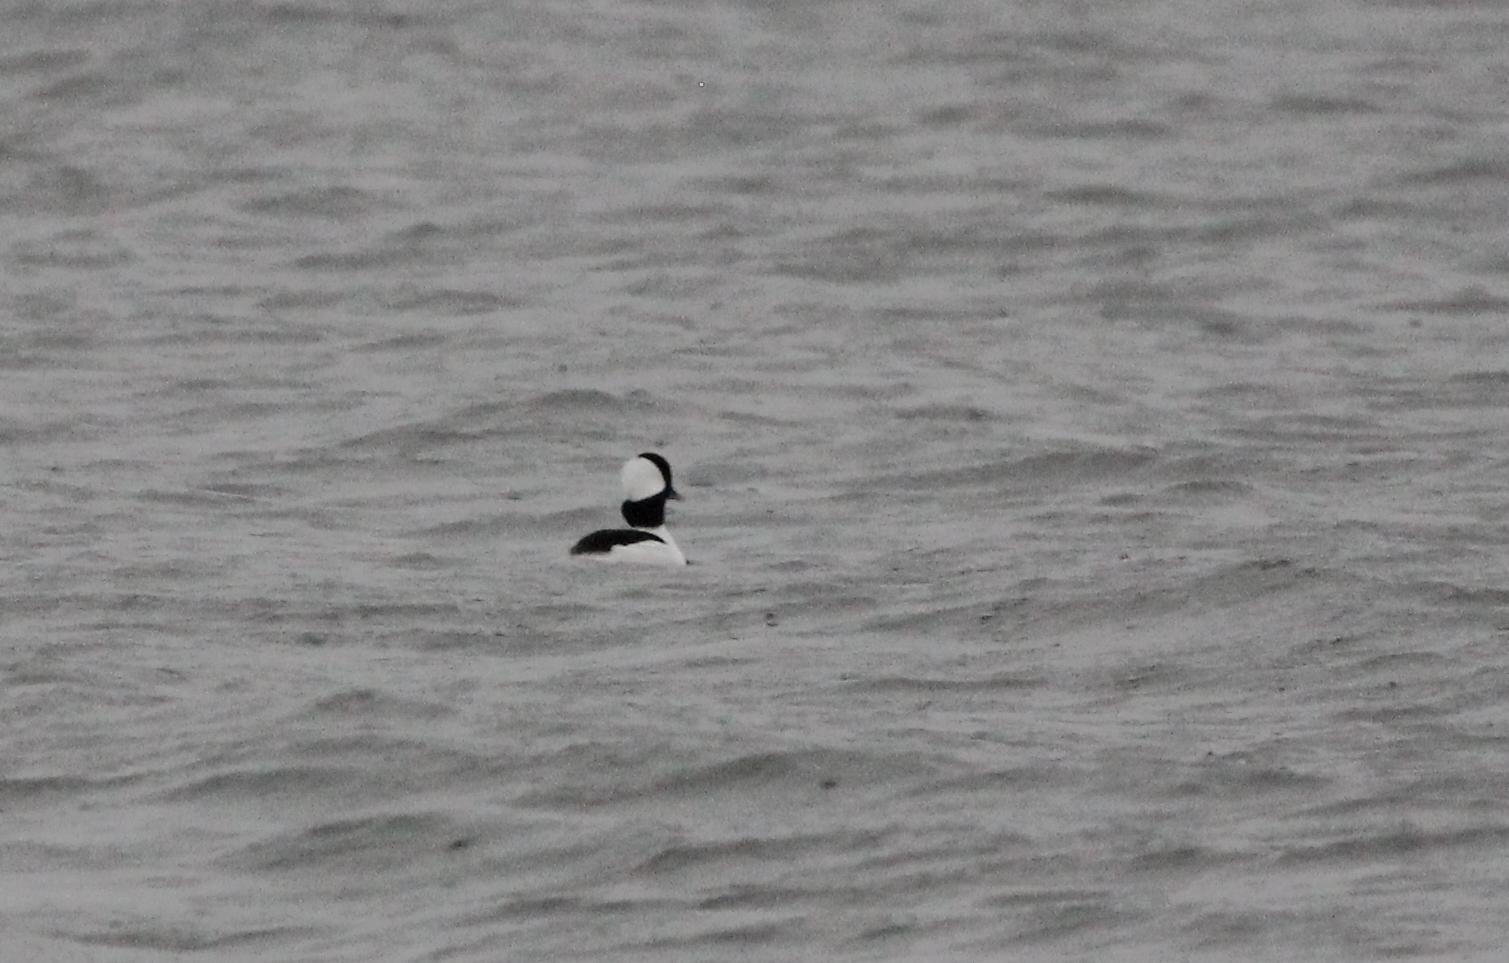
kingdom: Animalia
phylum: Chordata
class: Aves
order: Anseriformes
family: Anatidae
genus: Bucephala
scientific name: Bucephala albeola
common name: Bufflehead
